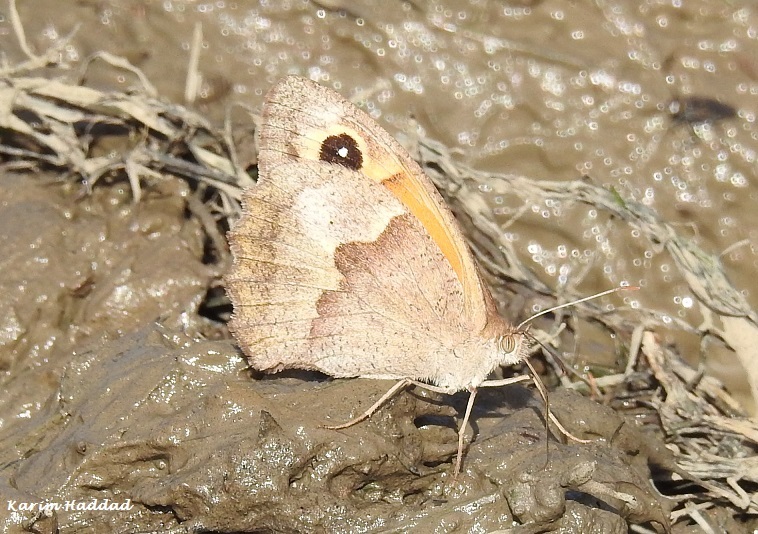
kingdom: Animalia
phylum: Arthropoda
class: Insecta
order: Lepidoptera
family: Nymphalidae
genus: Maniola
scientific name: Maniola jurtina
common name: Meadow brown
